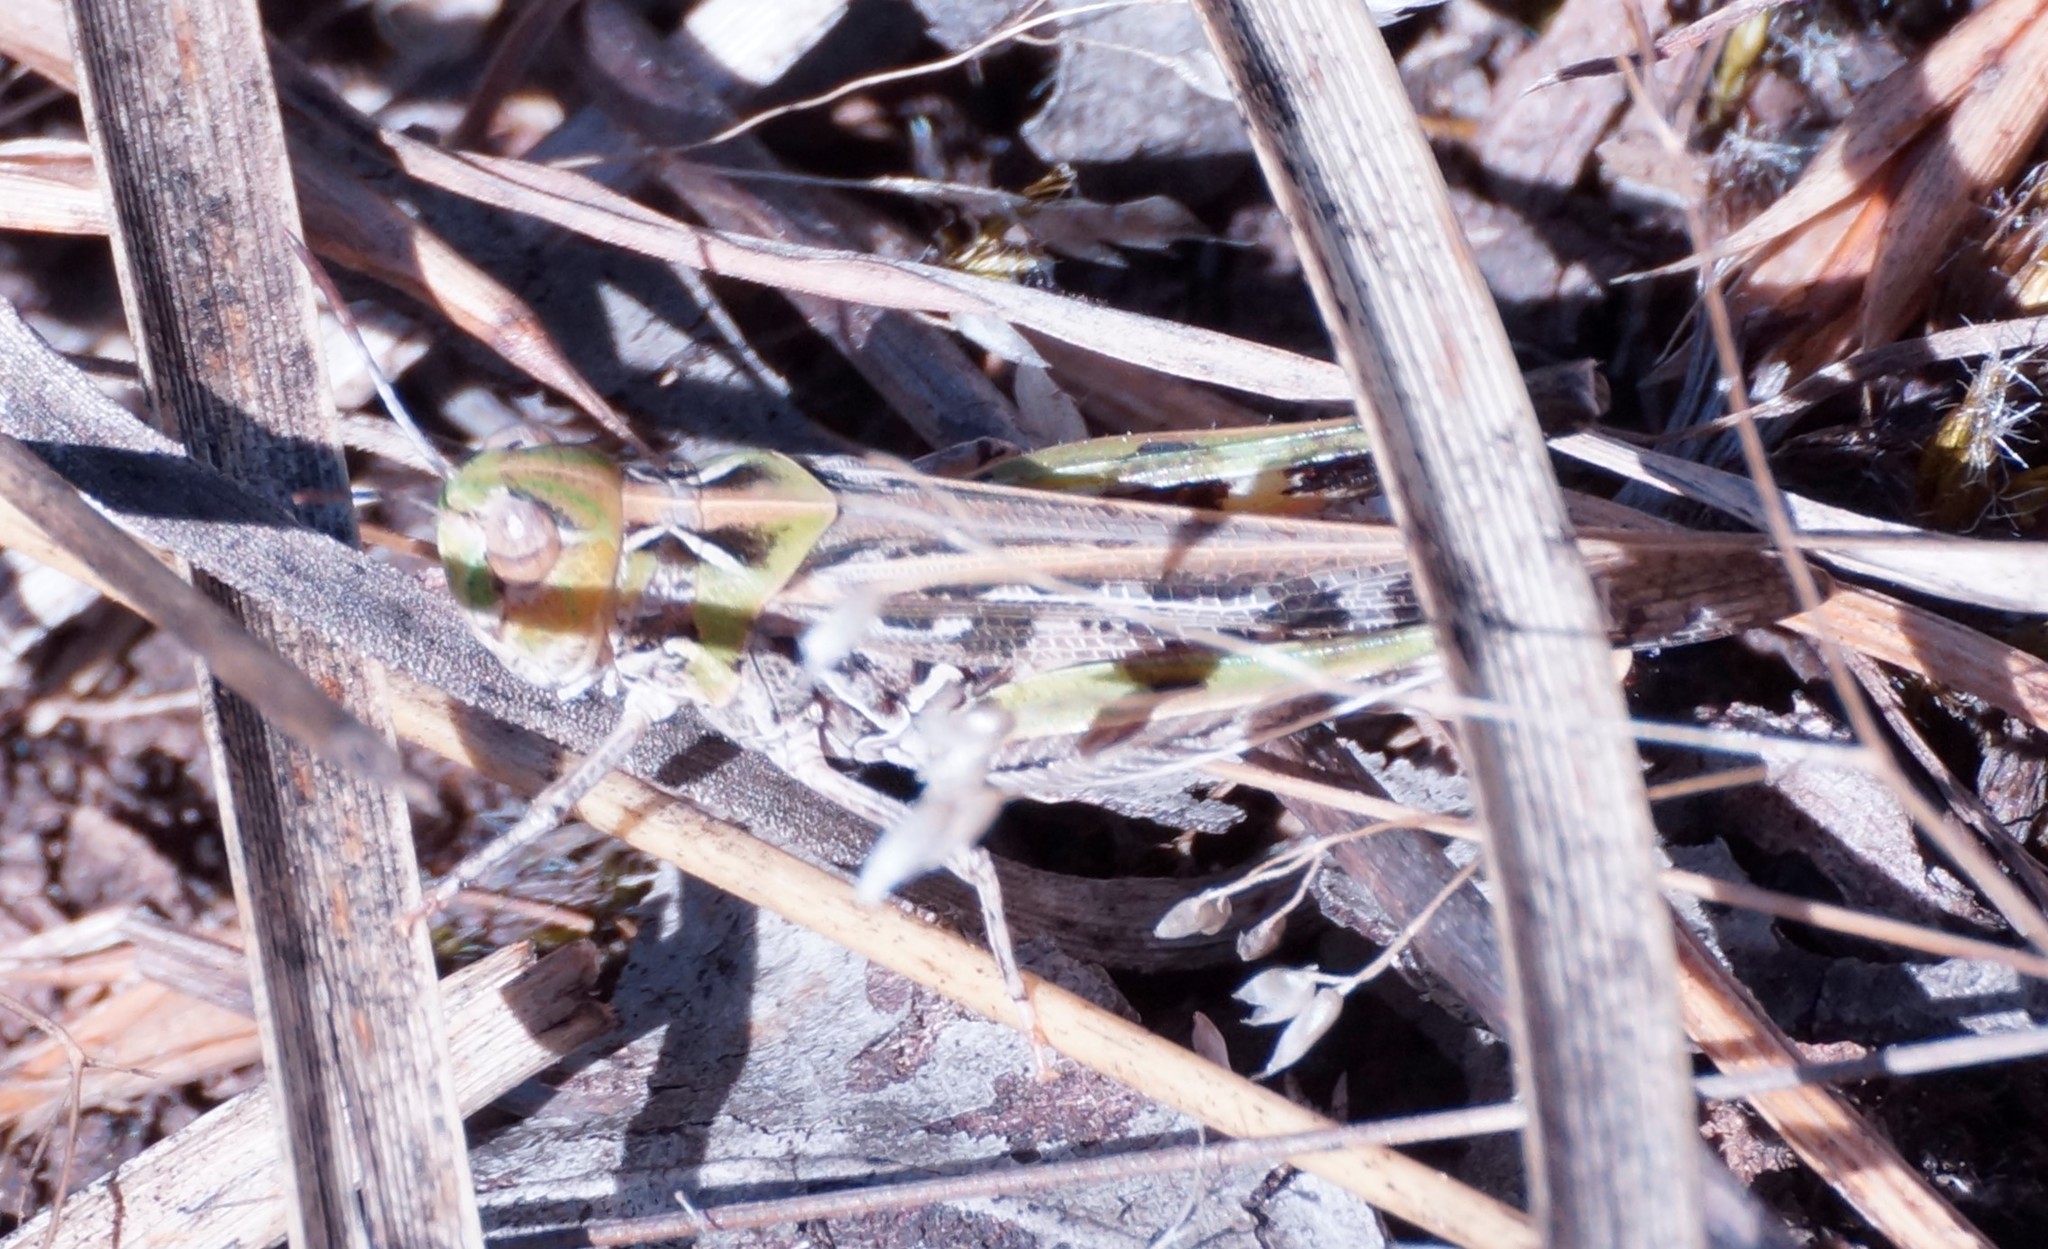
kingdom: Animalia
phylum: Arthropoda
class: Insecta
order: Orthoptera
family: Acrididae
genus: Austroicetes
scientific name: Austroicetes vulgaris
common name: Southeastern austroicetes
